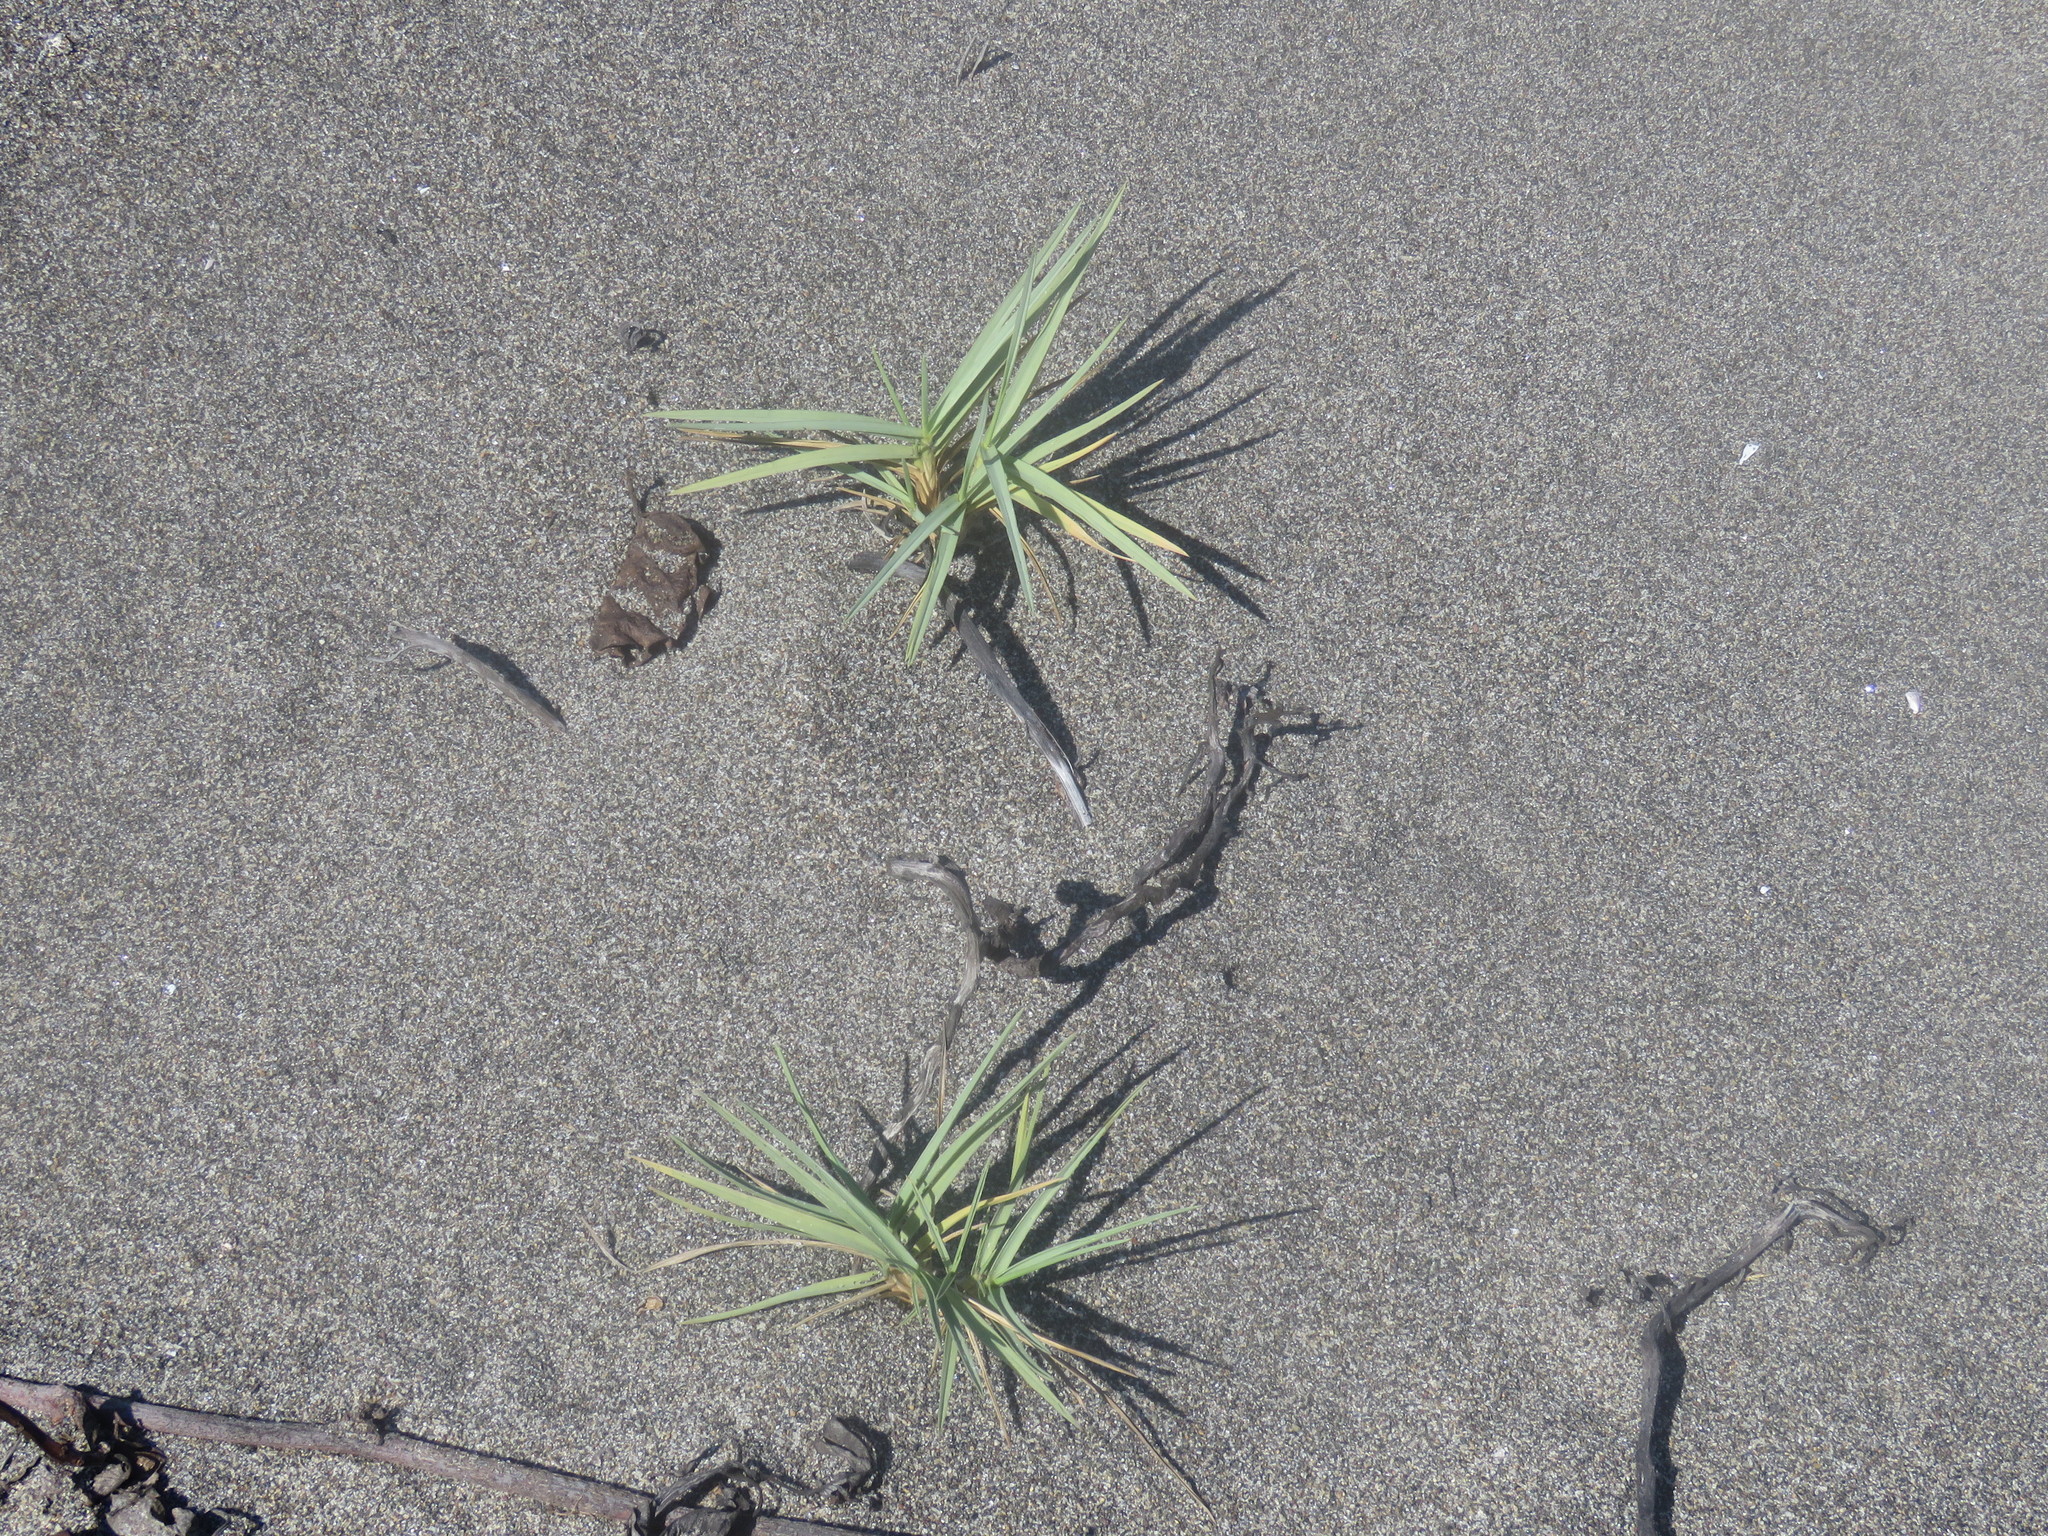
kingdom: Plantae
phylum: Tracheophyta
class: Liliopsida
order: Poales
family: Poaceae
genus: Jouvea
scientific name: Jouvea pilosa
